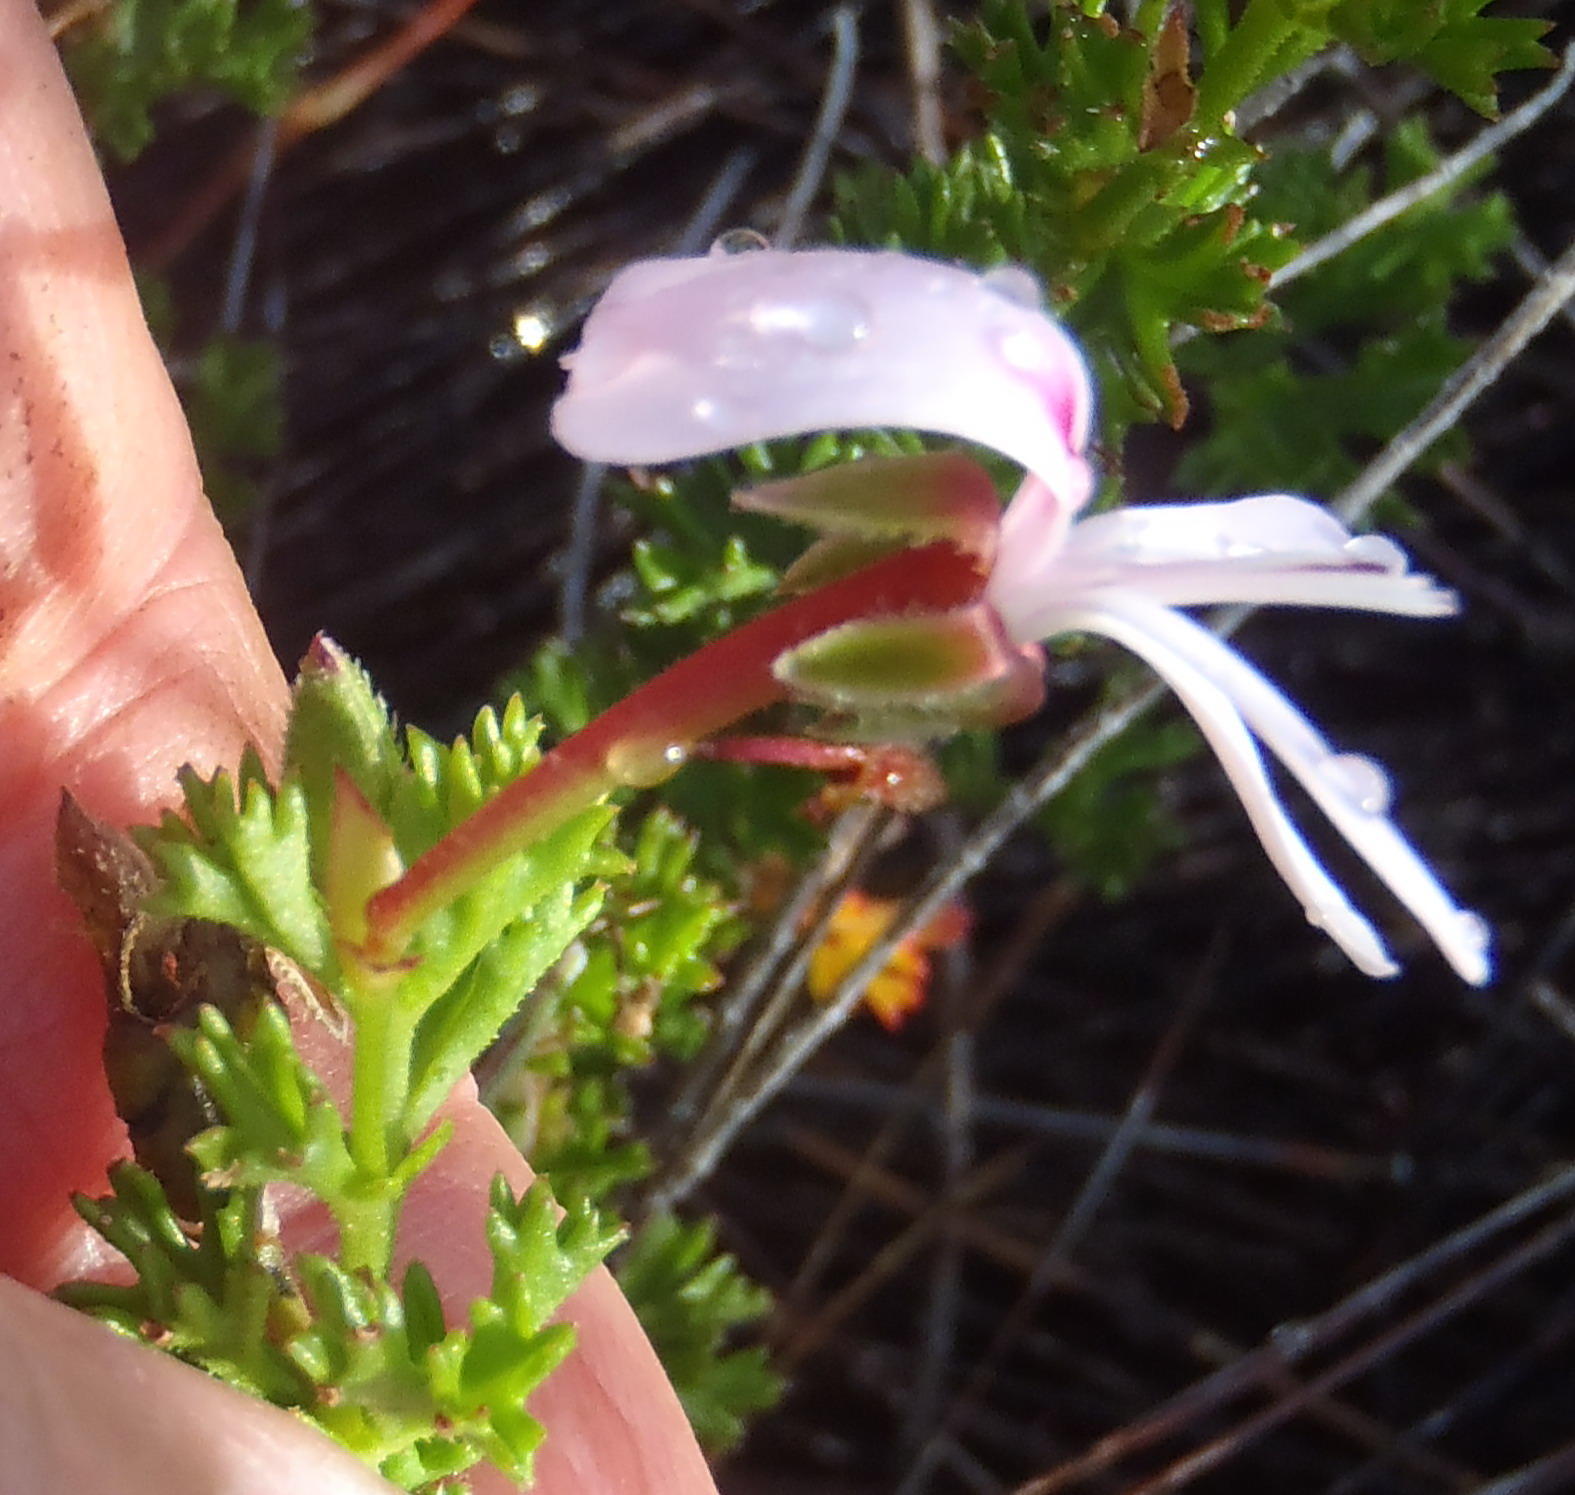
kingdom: Plantae
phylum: Tracheophyta
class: Magnoliopsida
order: Geraniales
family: Geraniaceae
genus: Pelargonium
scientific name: Pelargonium fruticosum
